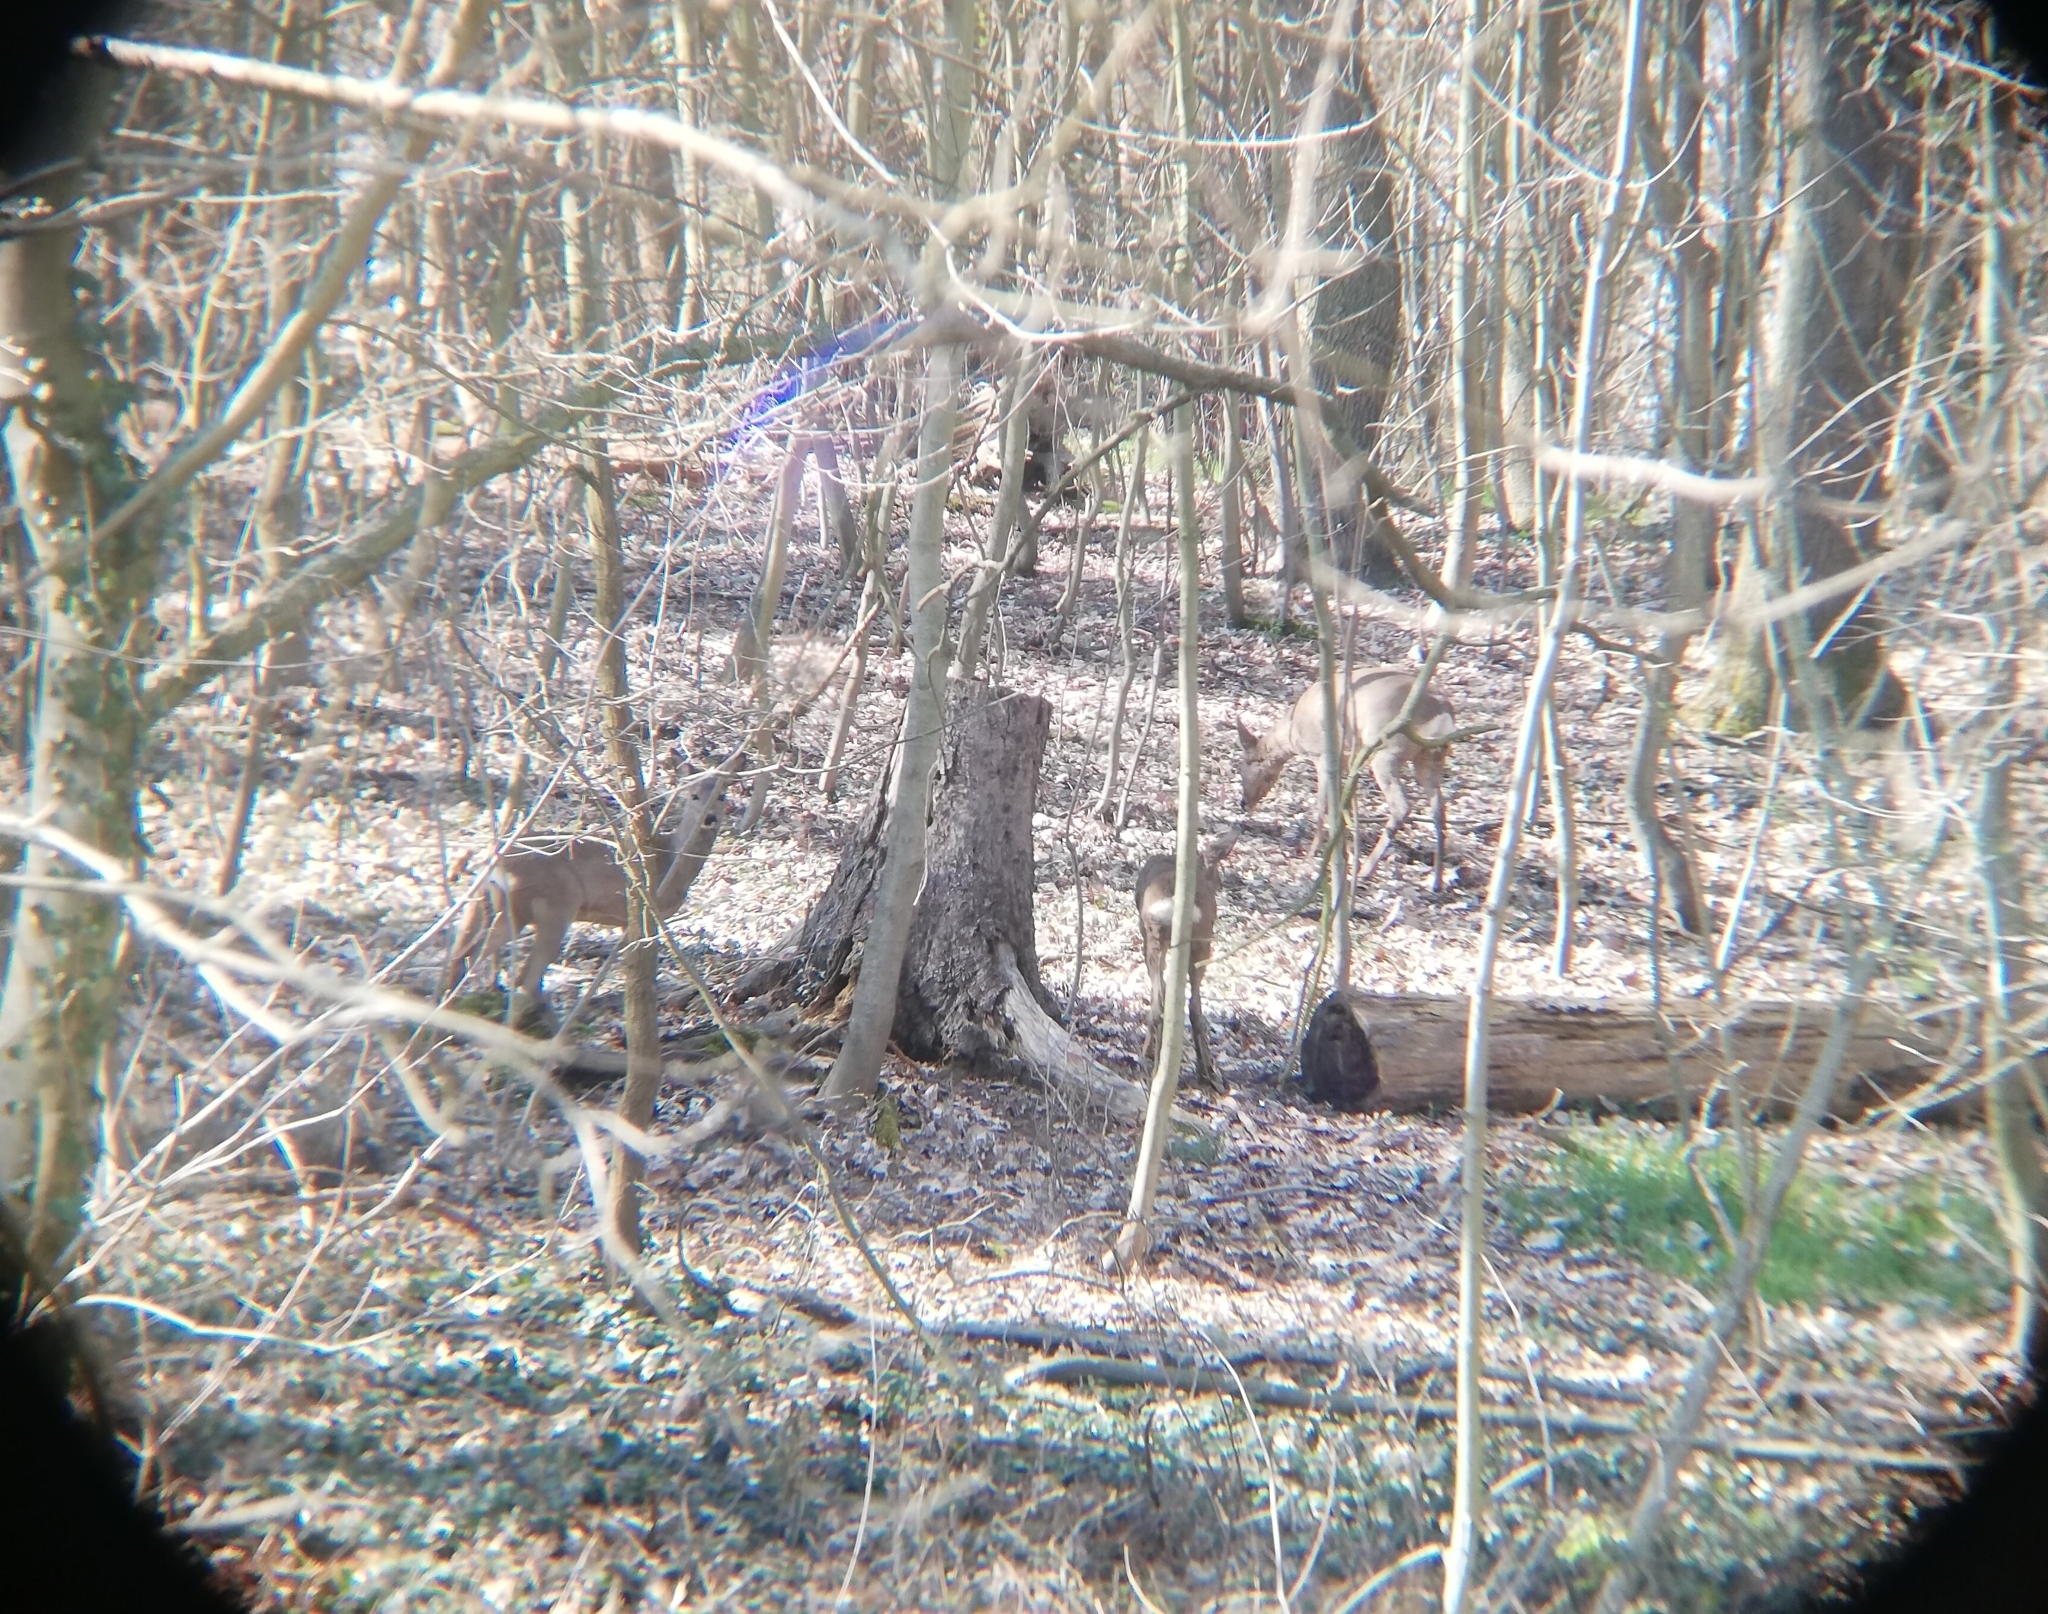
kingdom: Animalia
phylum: Chordata
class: Mammalia
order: Artiodactyla
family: Cervidae
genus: Capreolus
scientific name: Capreolus capreolus
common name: Western roe deer
